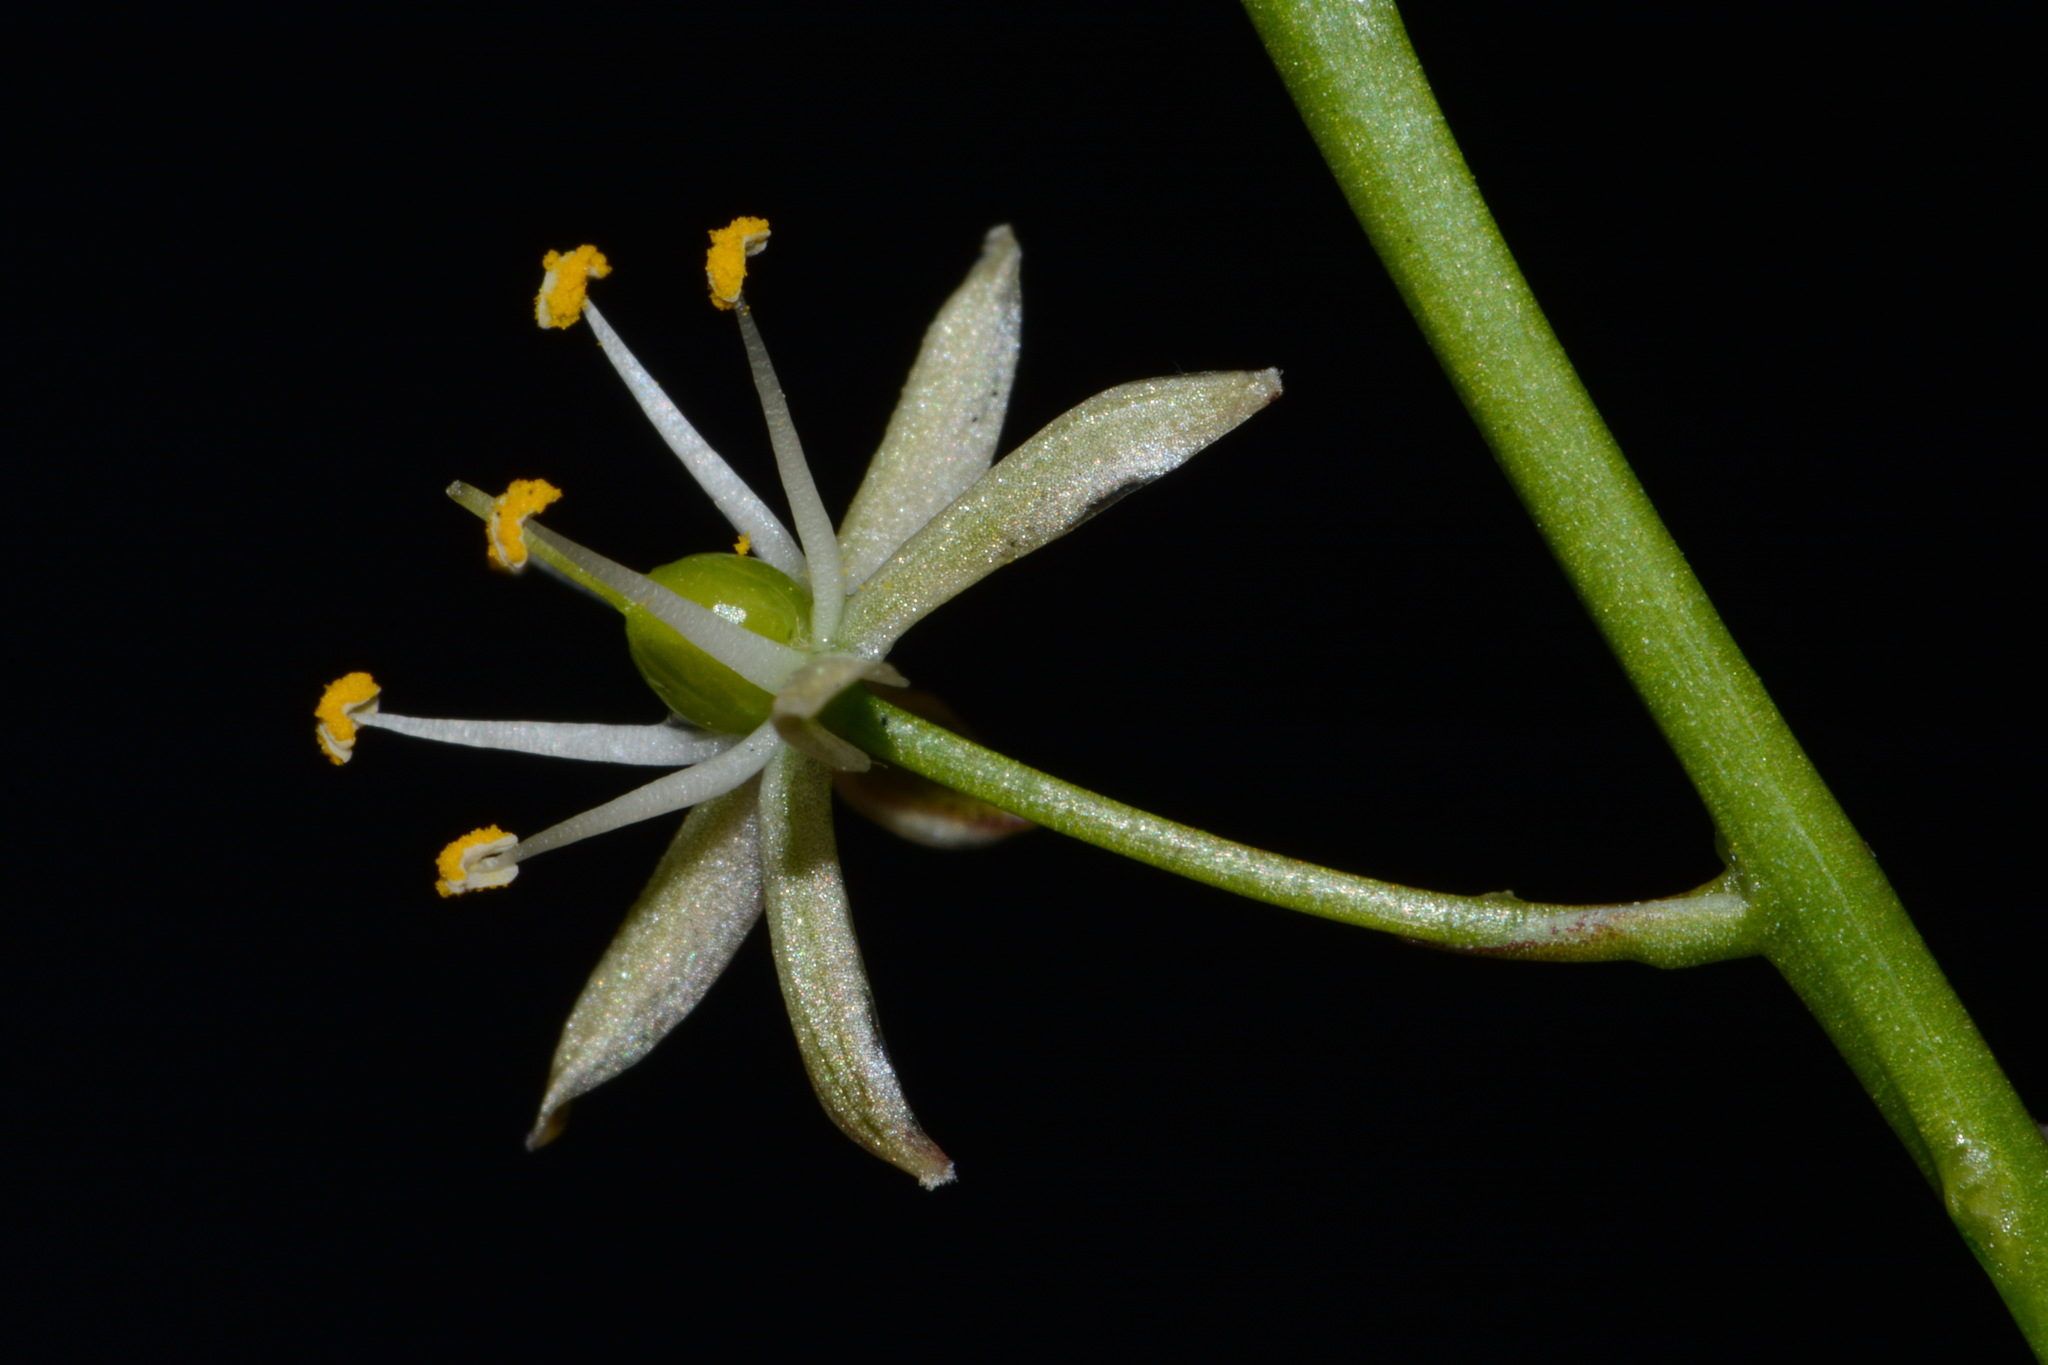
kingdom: Plantae
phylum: Tracheophyta
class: Liliopsida
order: Asparagales
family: Asparagaceae
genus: Schoenolirion
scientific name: Schoenolirion wrightii
